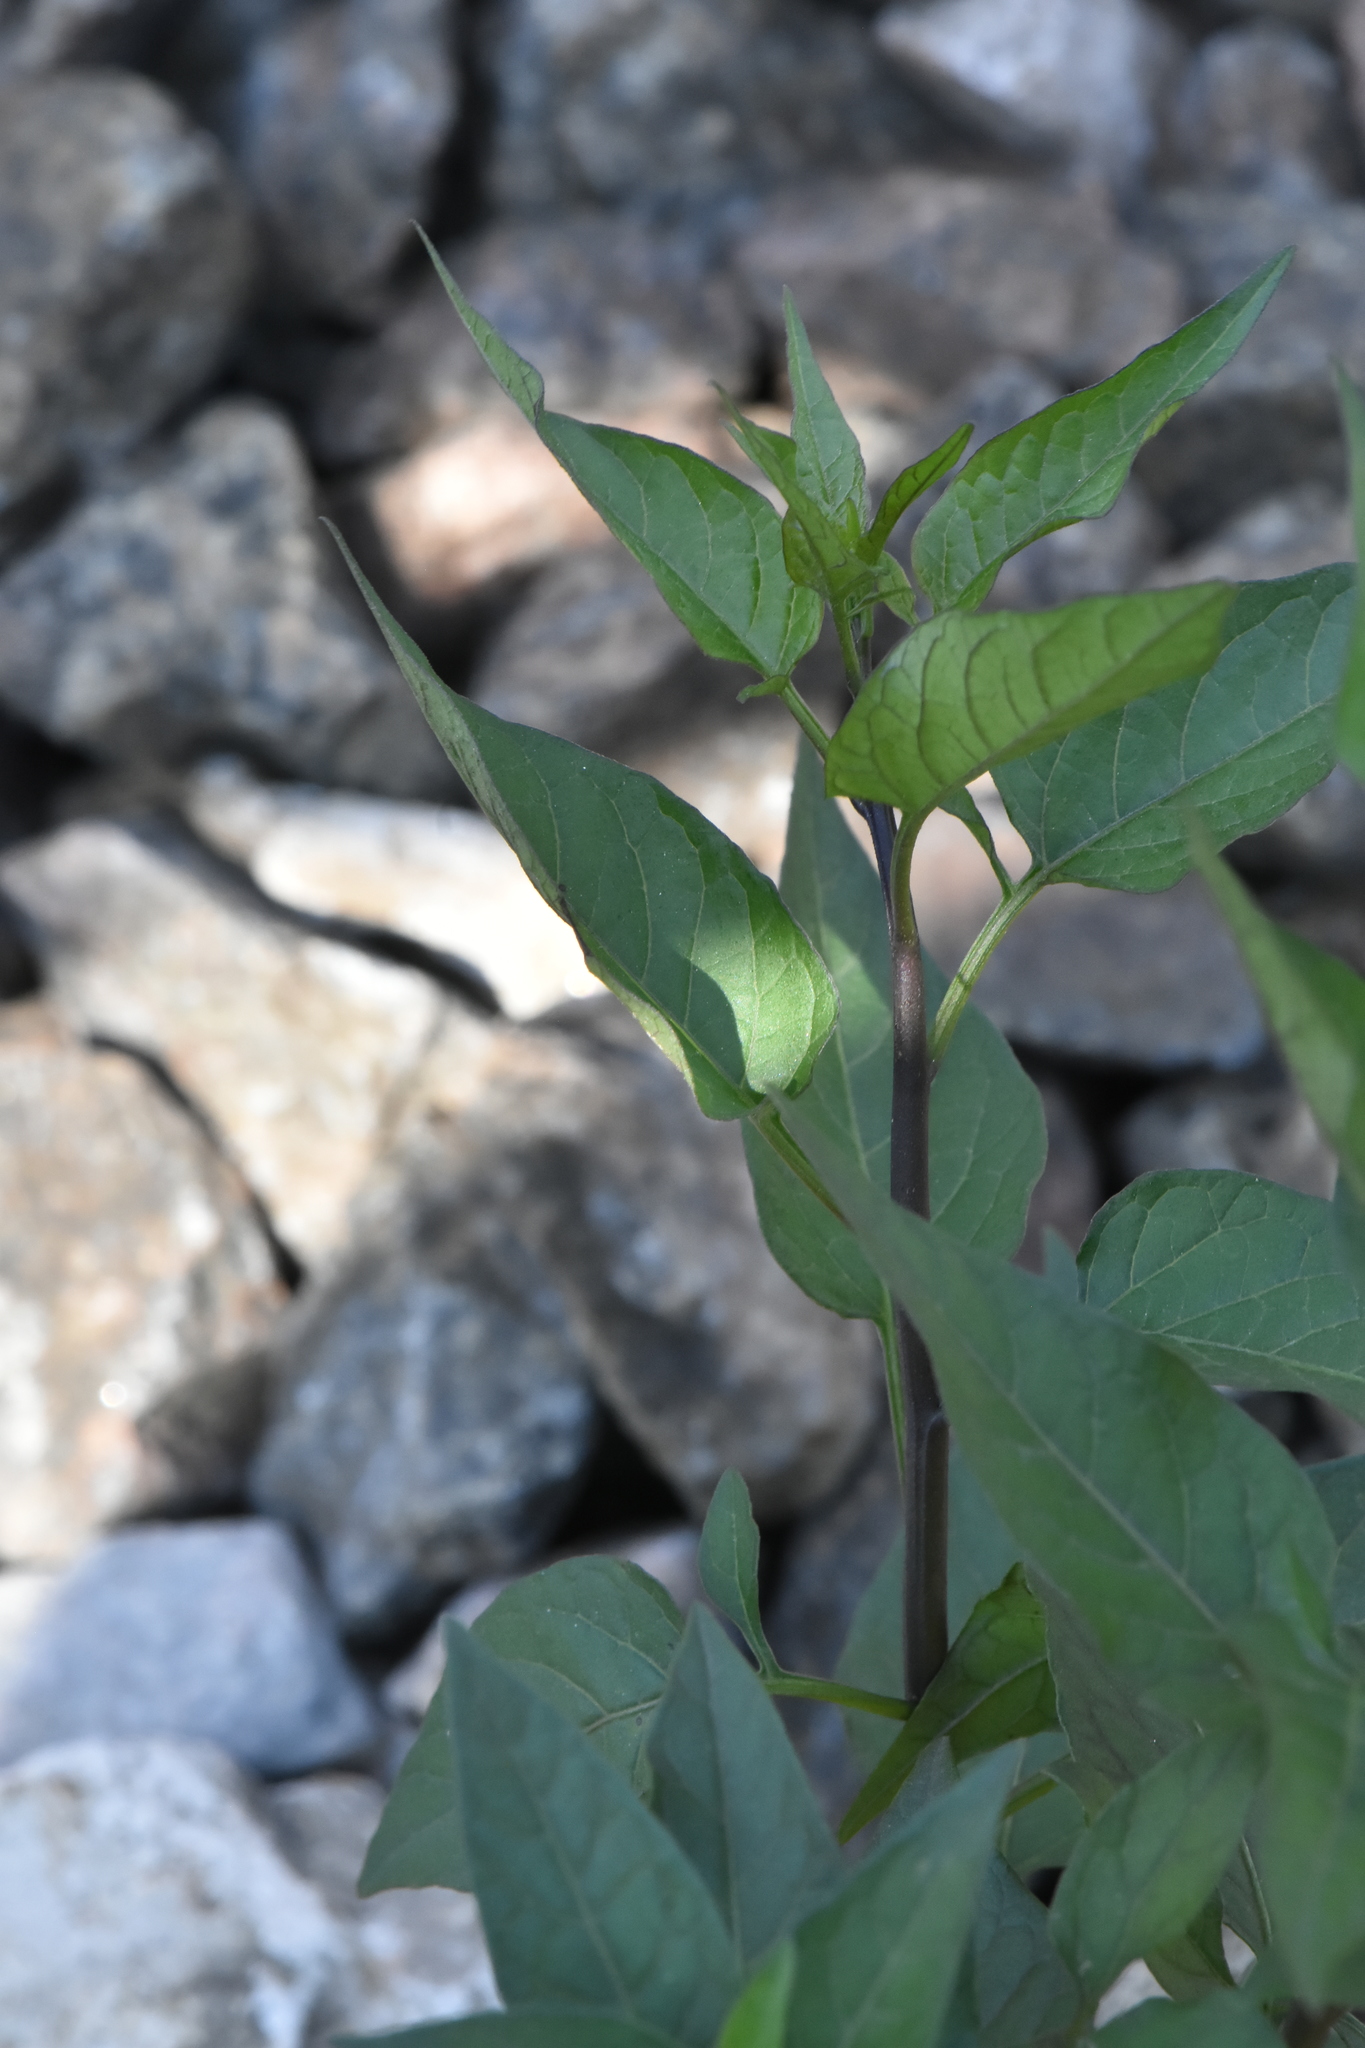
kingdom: Plantae
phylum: Tracheophyta
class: Magnoliopsida
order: Solanales
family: Solanaceae
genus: Solanum
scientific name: Solanum dulcamara
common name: Climbing nightshade
